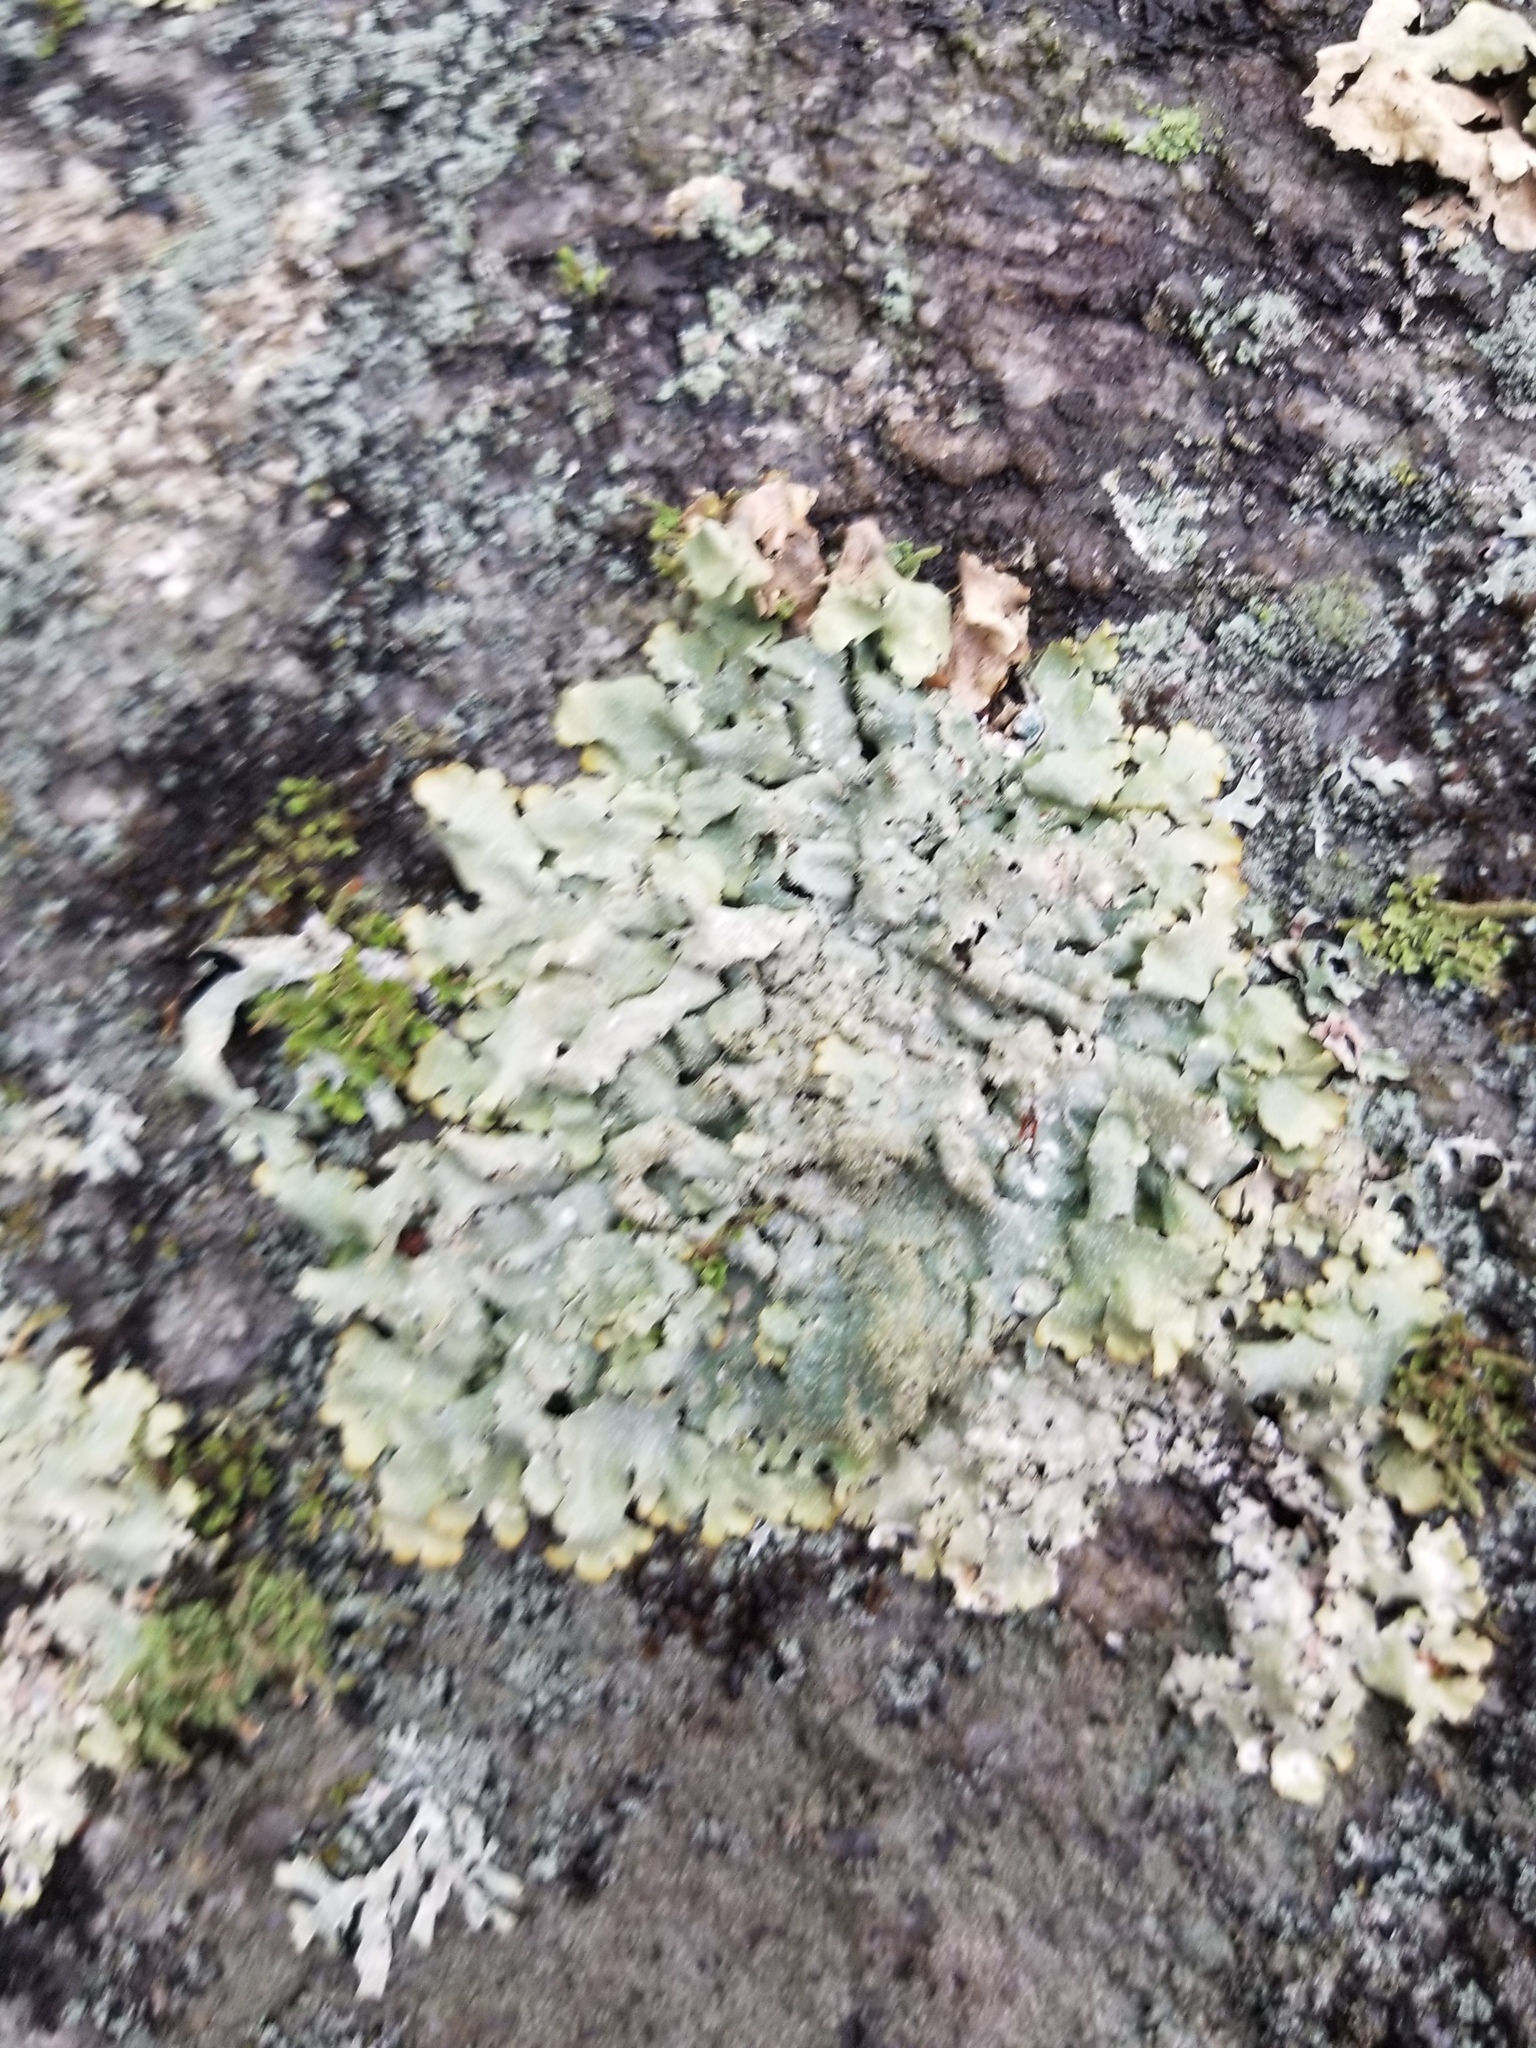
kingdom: Fungi
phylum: Ascomycota
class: Lecanoromycetes
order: Lecanorales
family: Parmeliaceae
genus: Flavoparmelia
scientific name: Flavoparmelia caperata
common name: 40-mile per hour lichen
